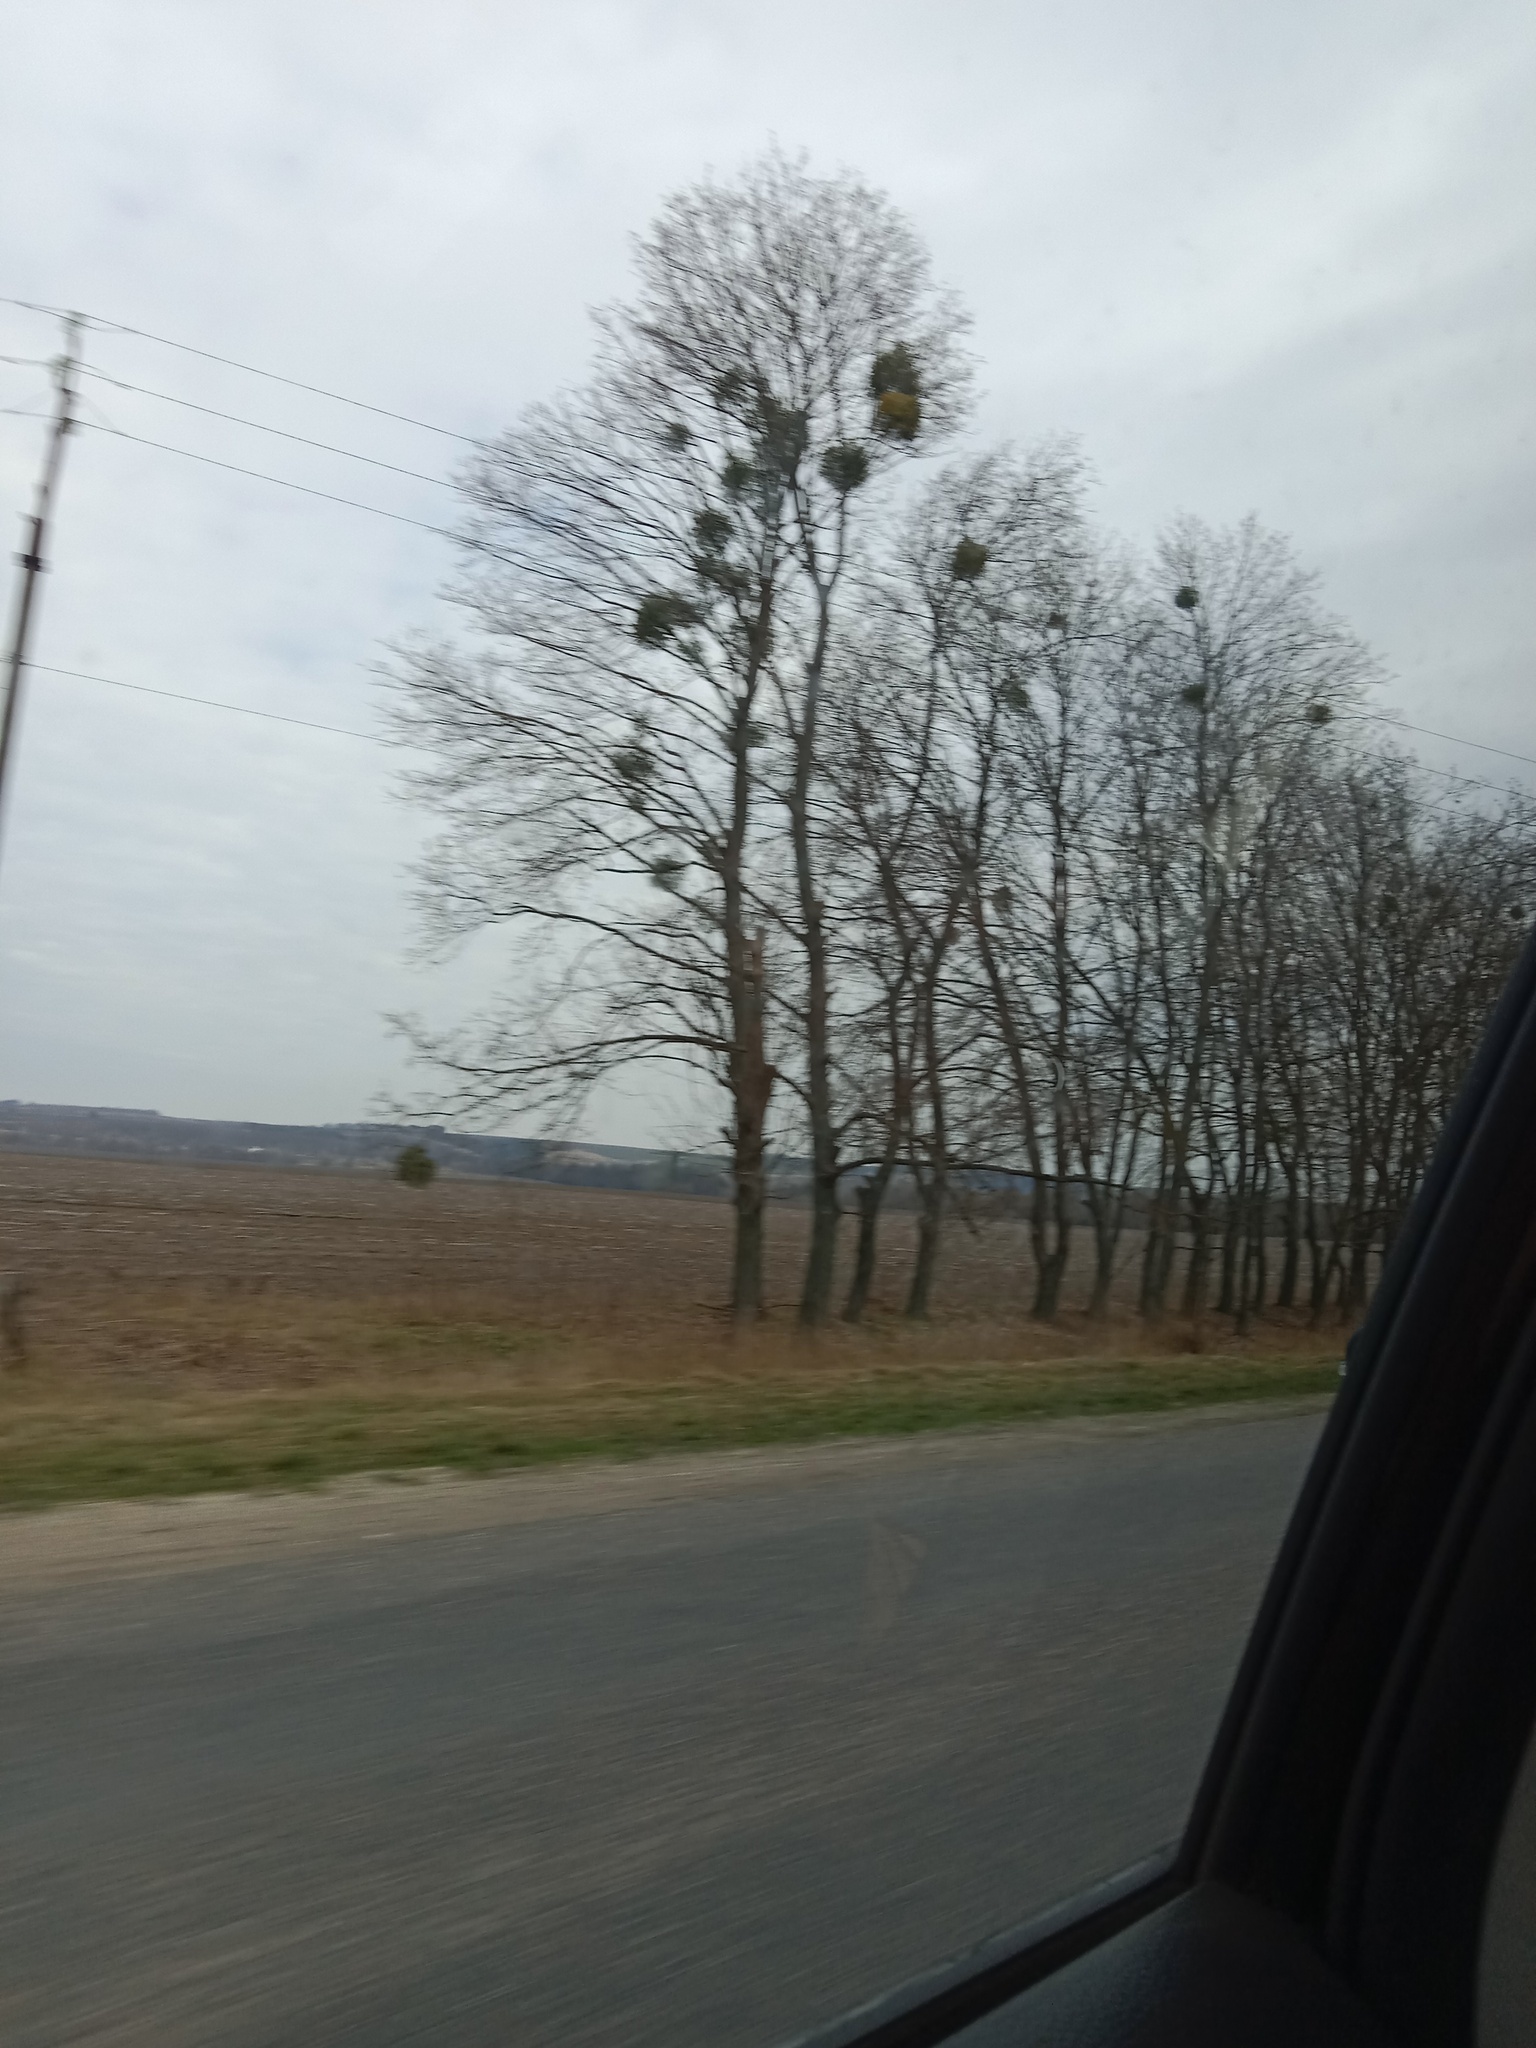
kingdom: Plantae
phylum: Tracheophyta
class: Magnoliopsida
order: Santalales
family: Viscaceae
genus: Viscum
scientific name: Viscum album
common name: Mistletoe
